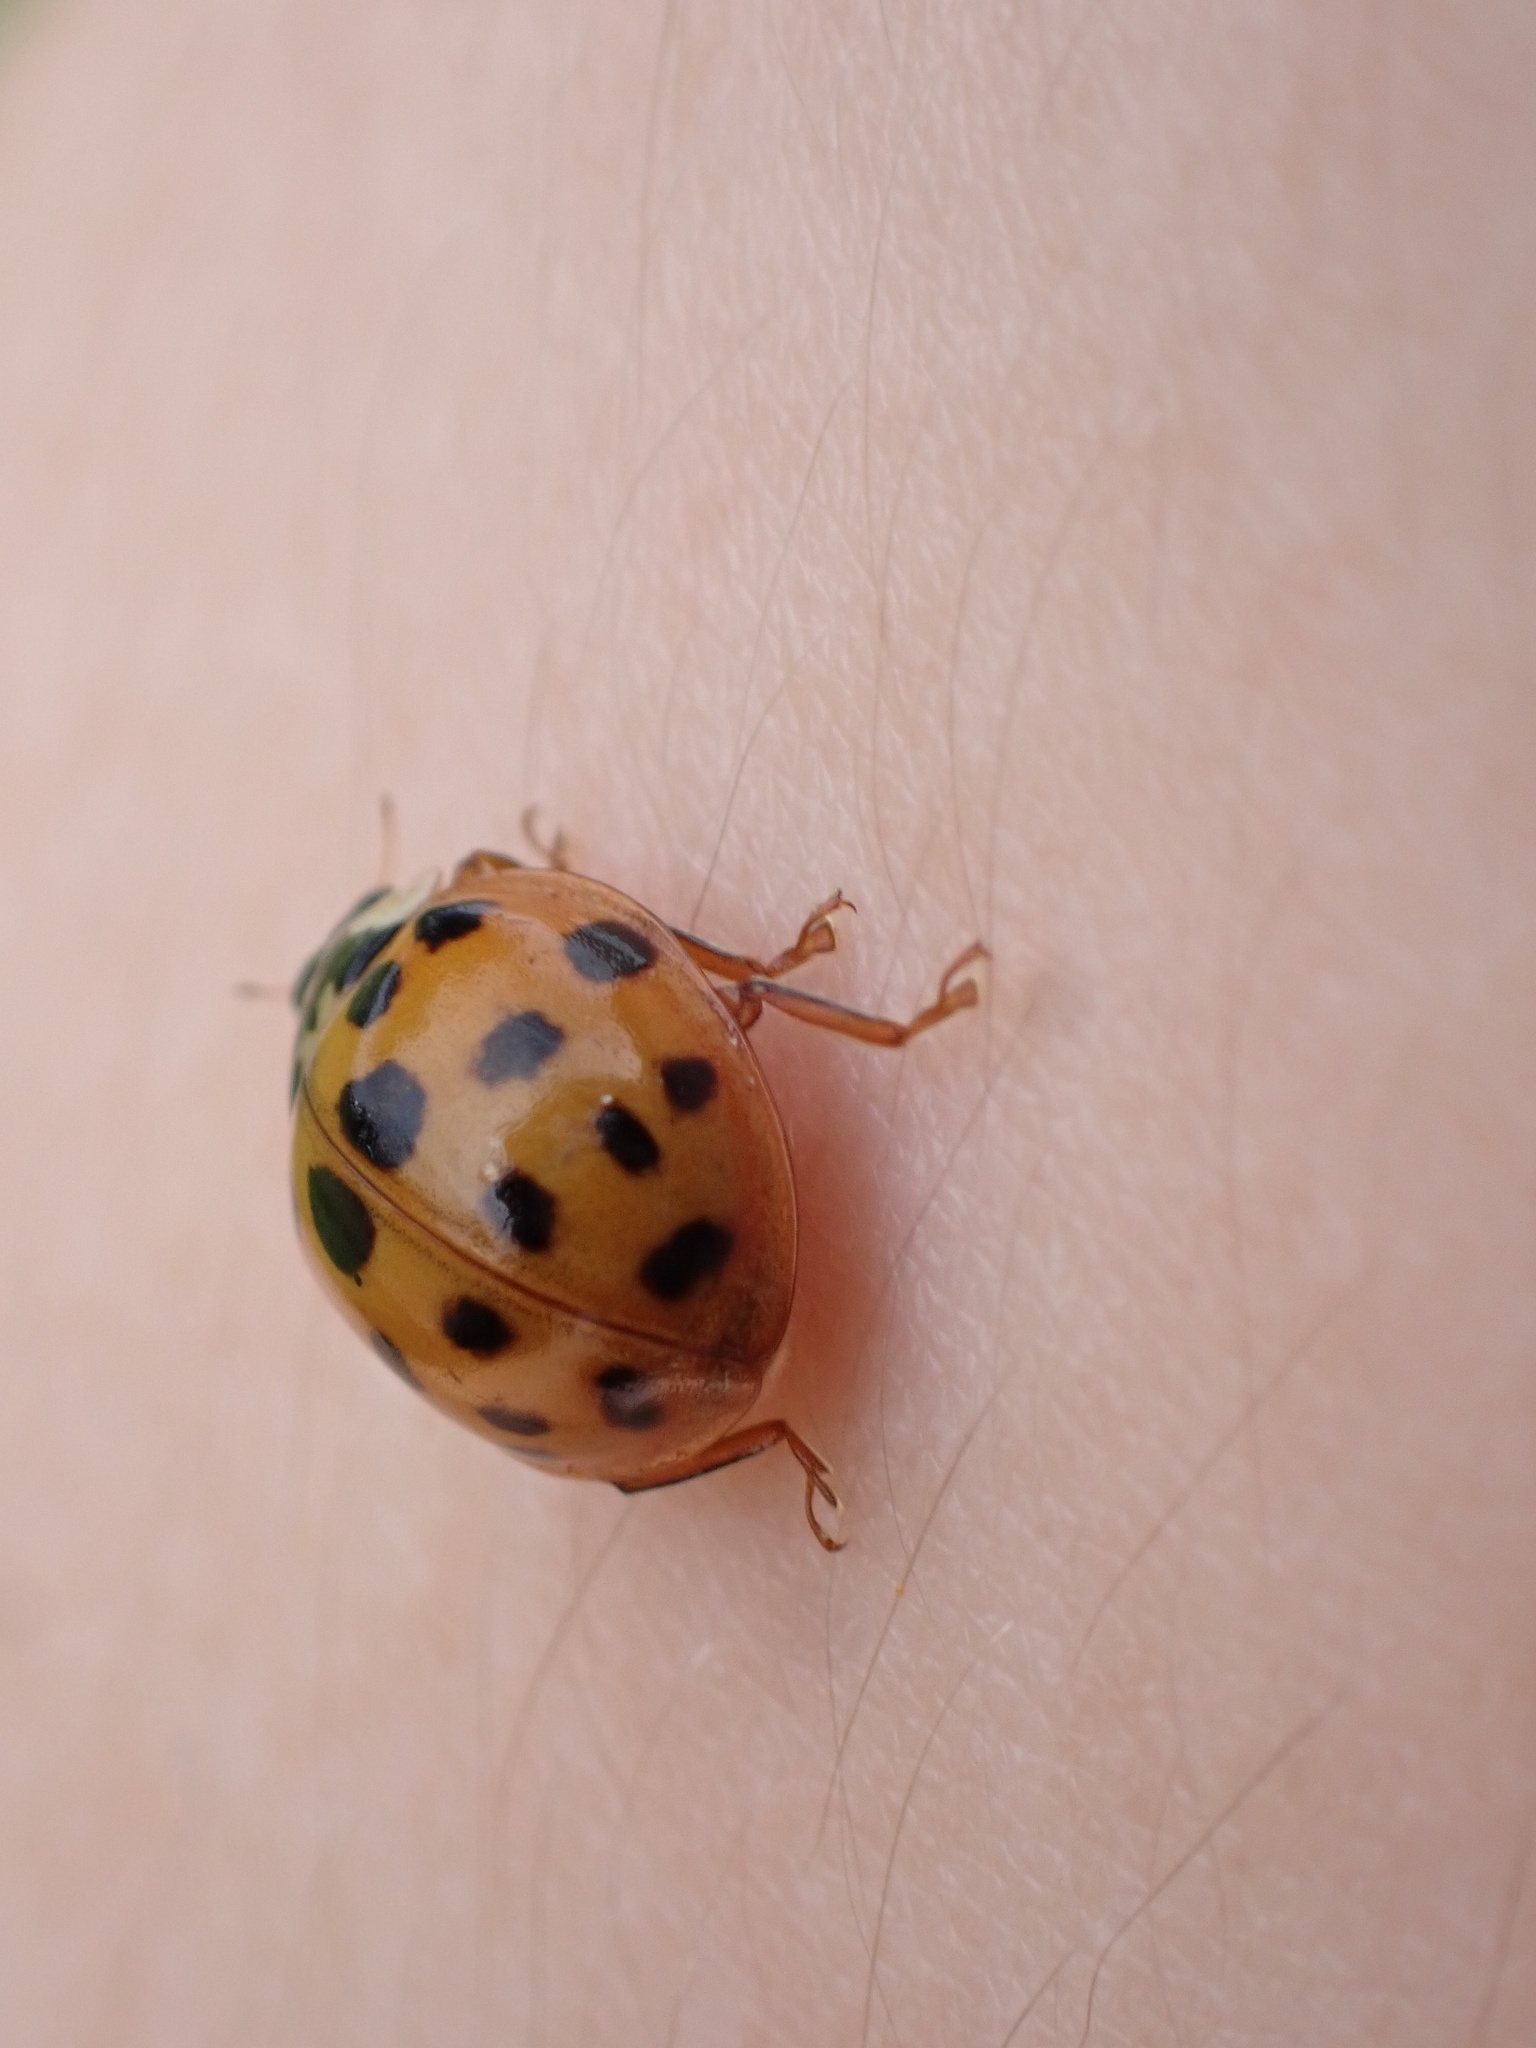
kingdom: Animalia
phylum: Arthropoda
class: Insecta
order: Coleoptera
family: Coccinellidae
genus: Harmonia
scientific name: Harmonia axyridis
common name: Harlequin ladybird
